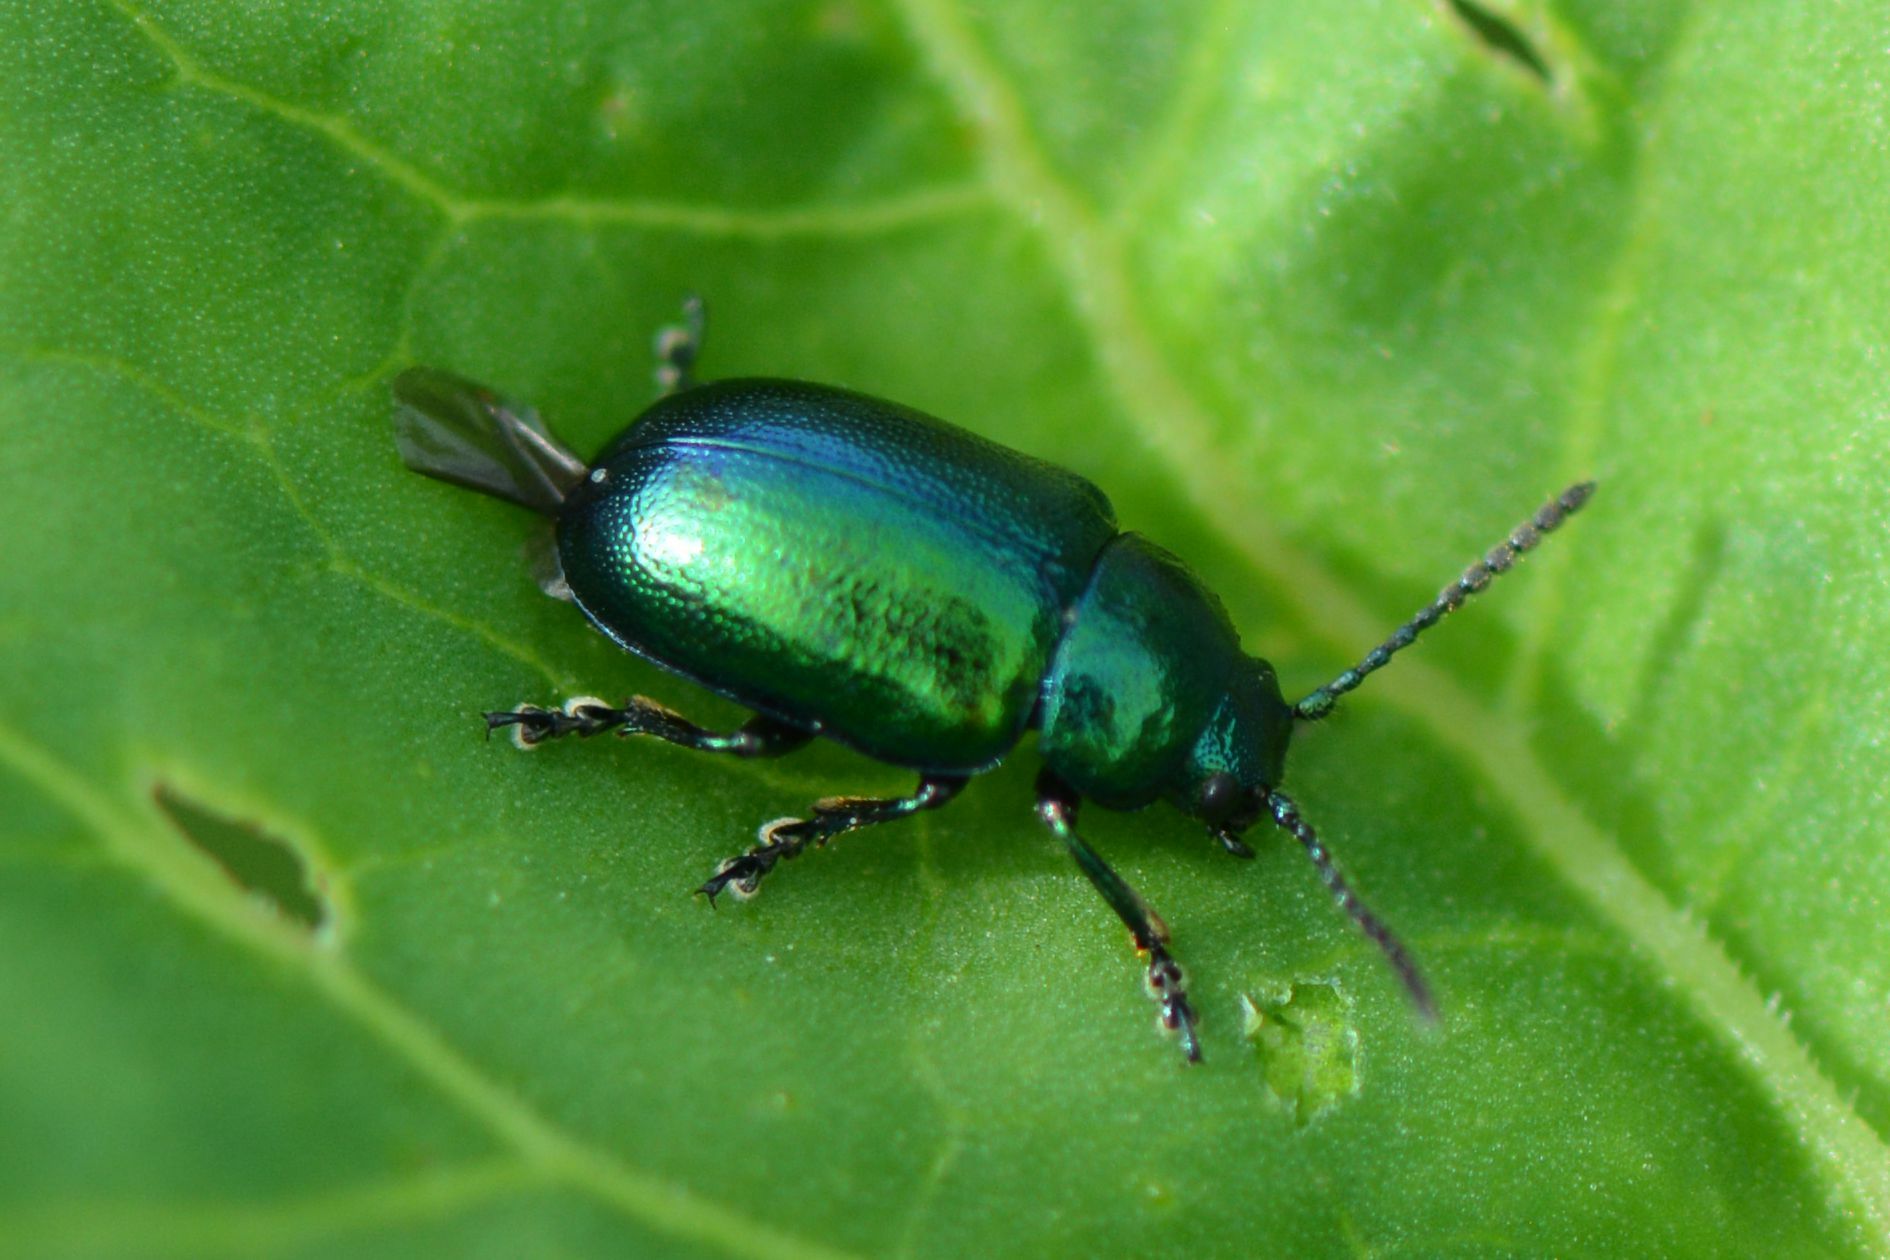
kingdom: Animalia
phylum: Arthropoda
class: Insecta
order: Coleoptera
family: Chrysomelidae
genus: Gastrophysa
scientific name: Gastrophysa viridula
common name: Green dock beetle
